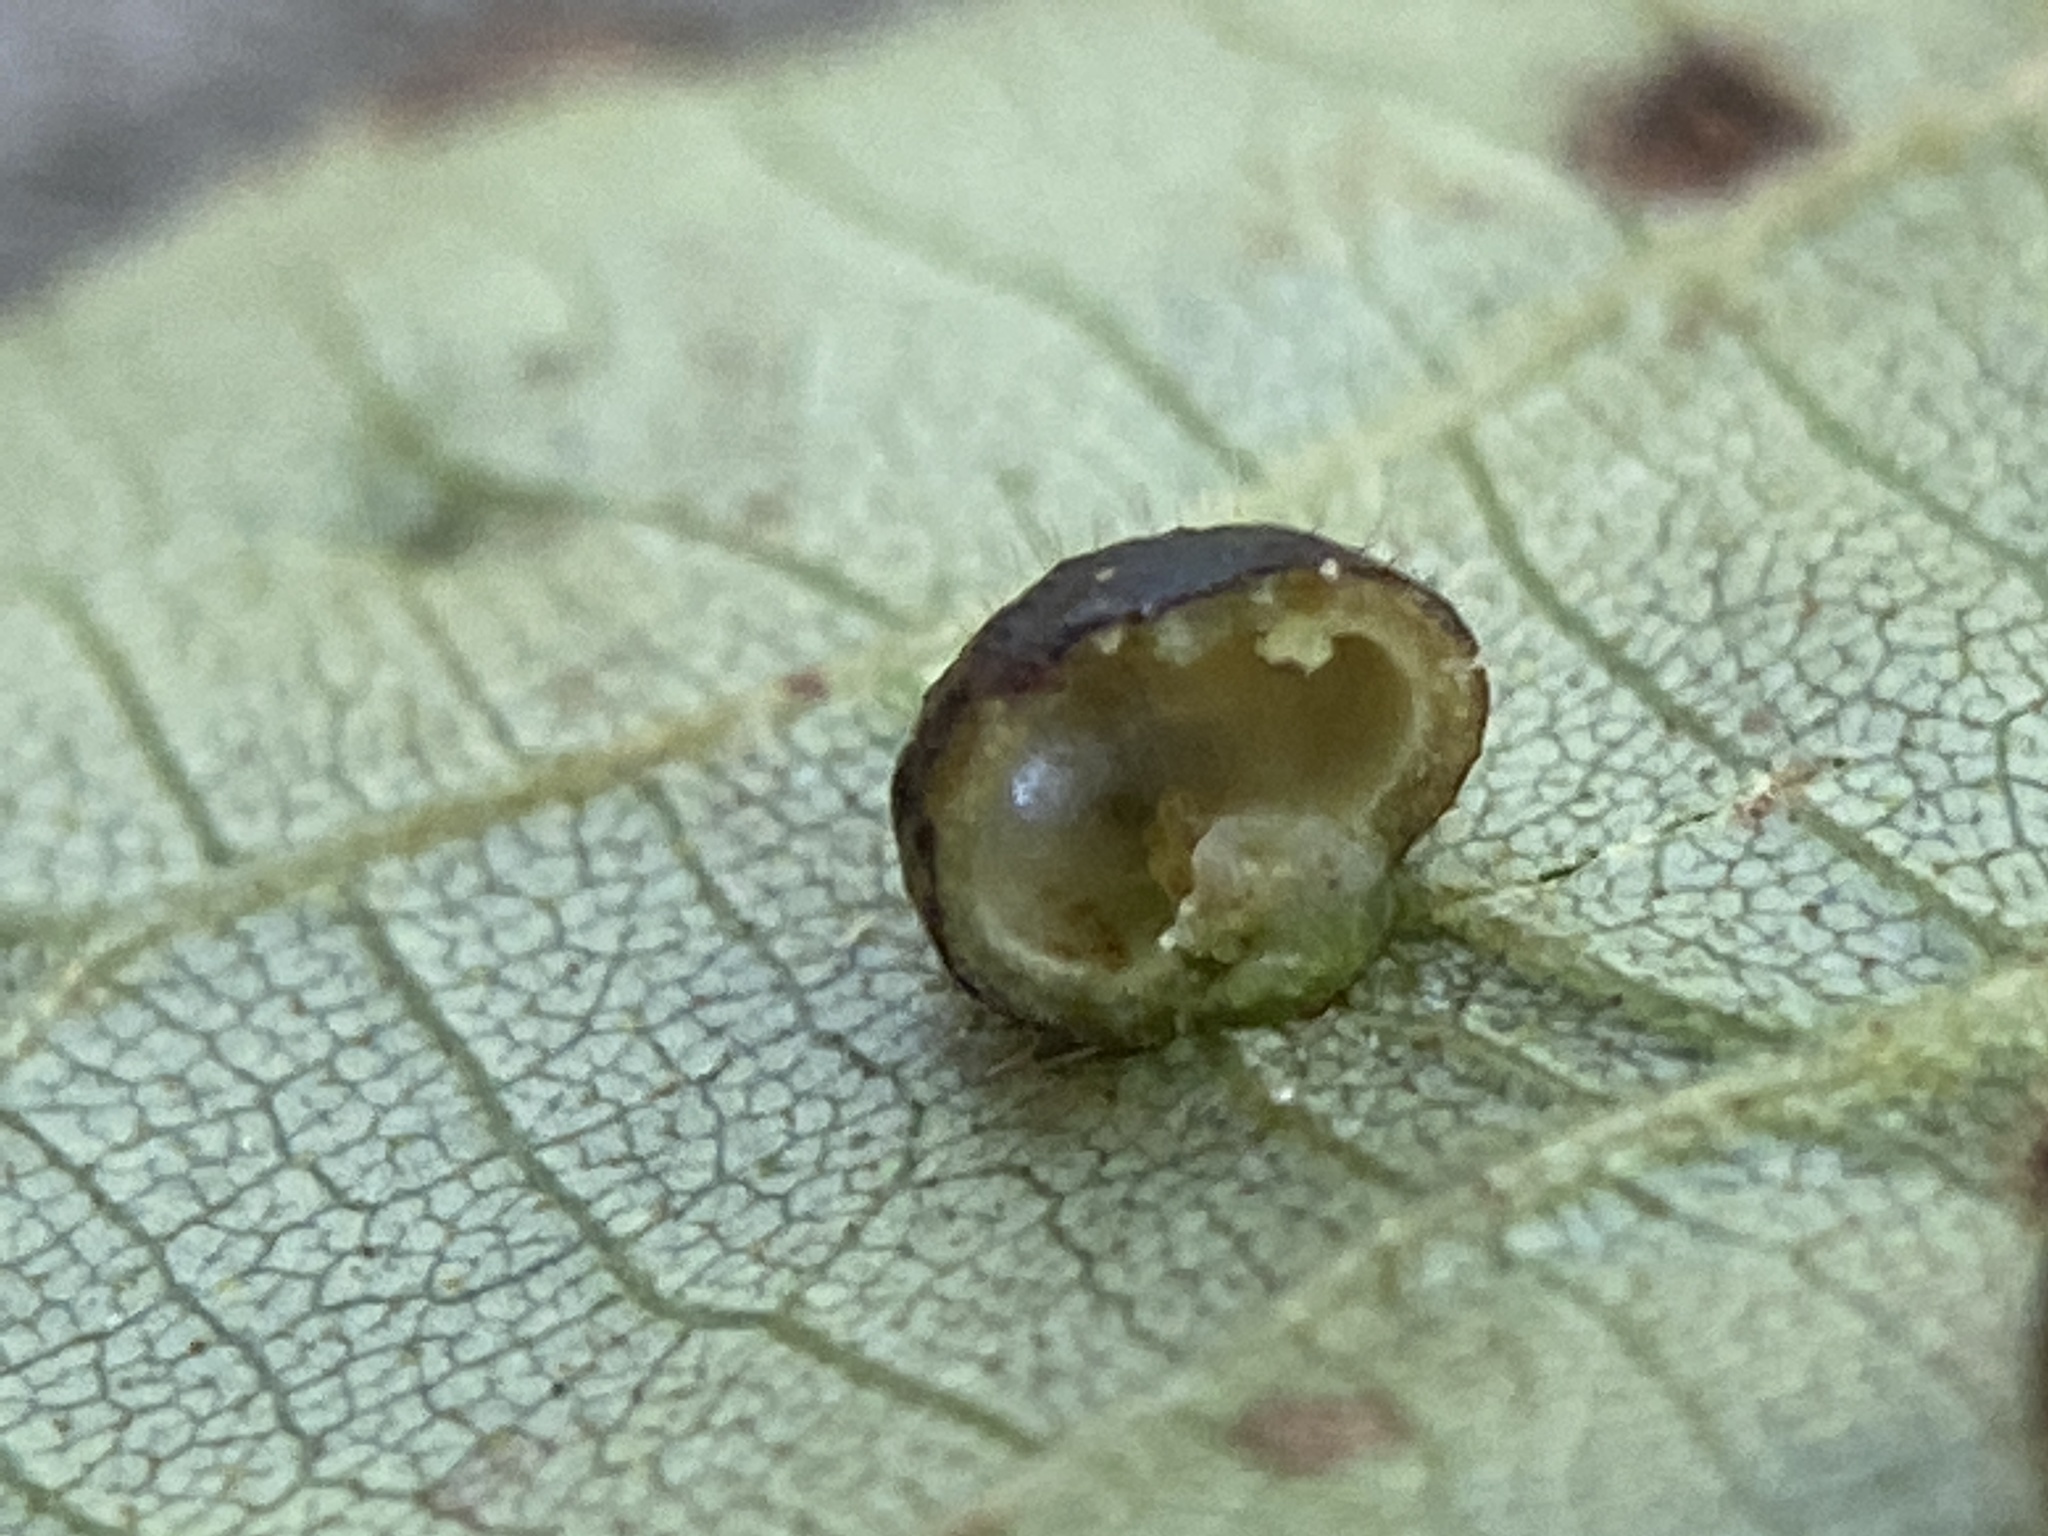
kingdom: Animalia
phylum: Arthropoda
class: Insecta
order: Diptera
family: Cecidomyiidae
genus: Caryomyia
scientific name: Caryomyia thompsoni
